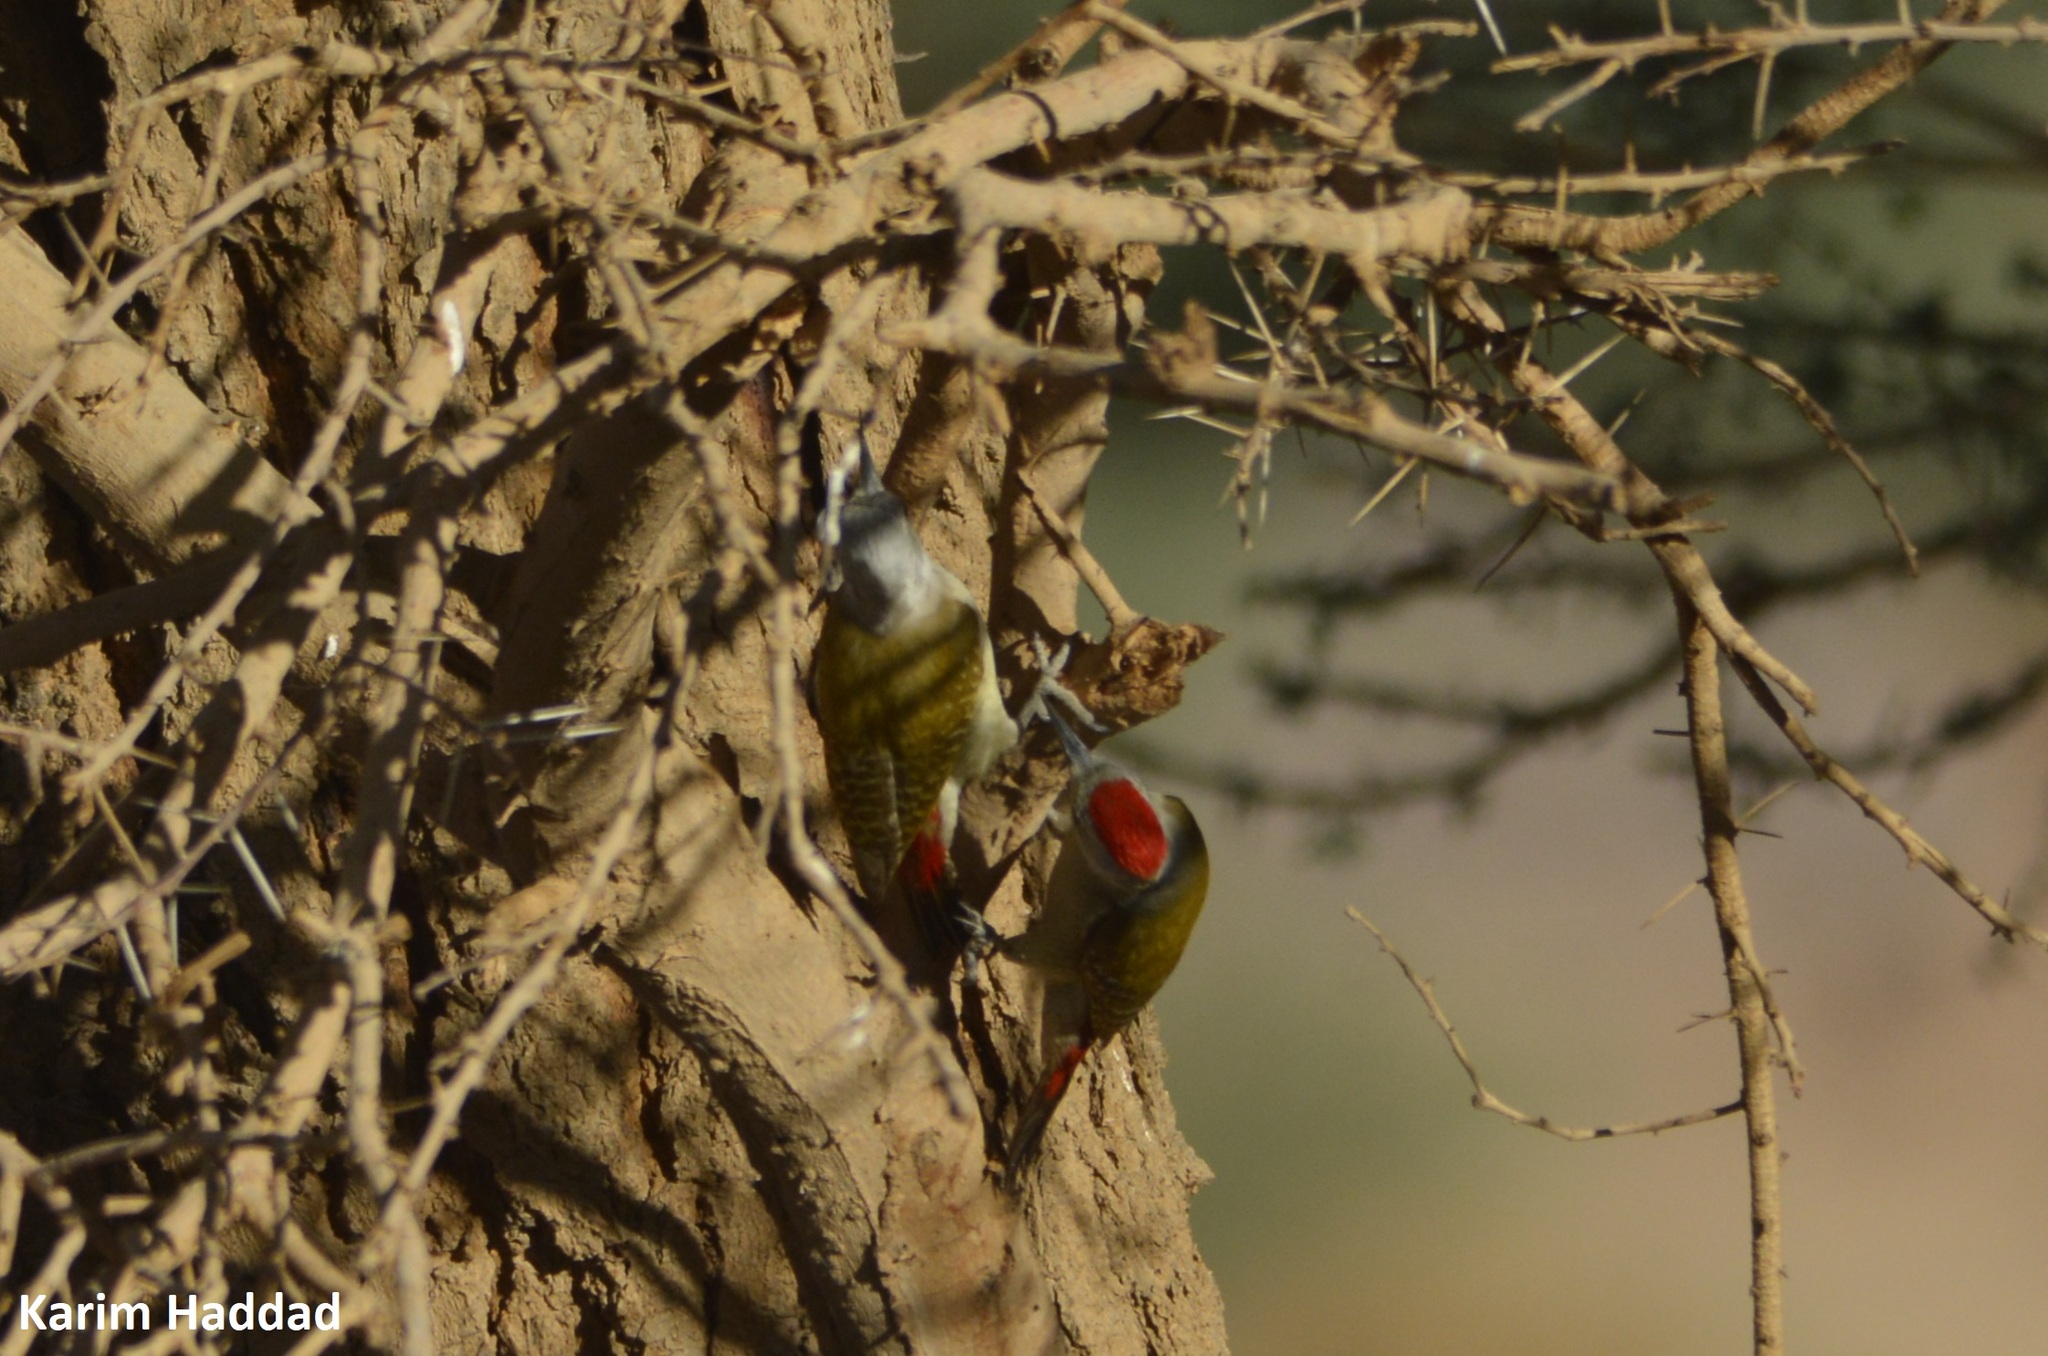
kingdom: Animalia
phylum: Chordata
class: Aves
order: Piciformes
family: Picidae
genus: Dendropicos
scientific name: Dendropicos goertae
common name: African grey woodpecker
